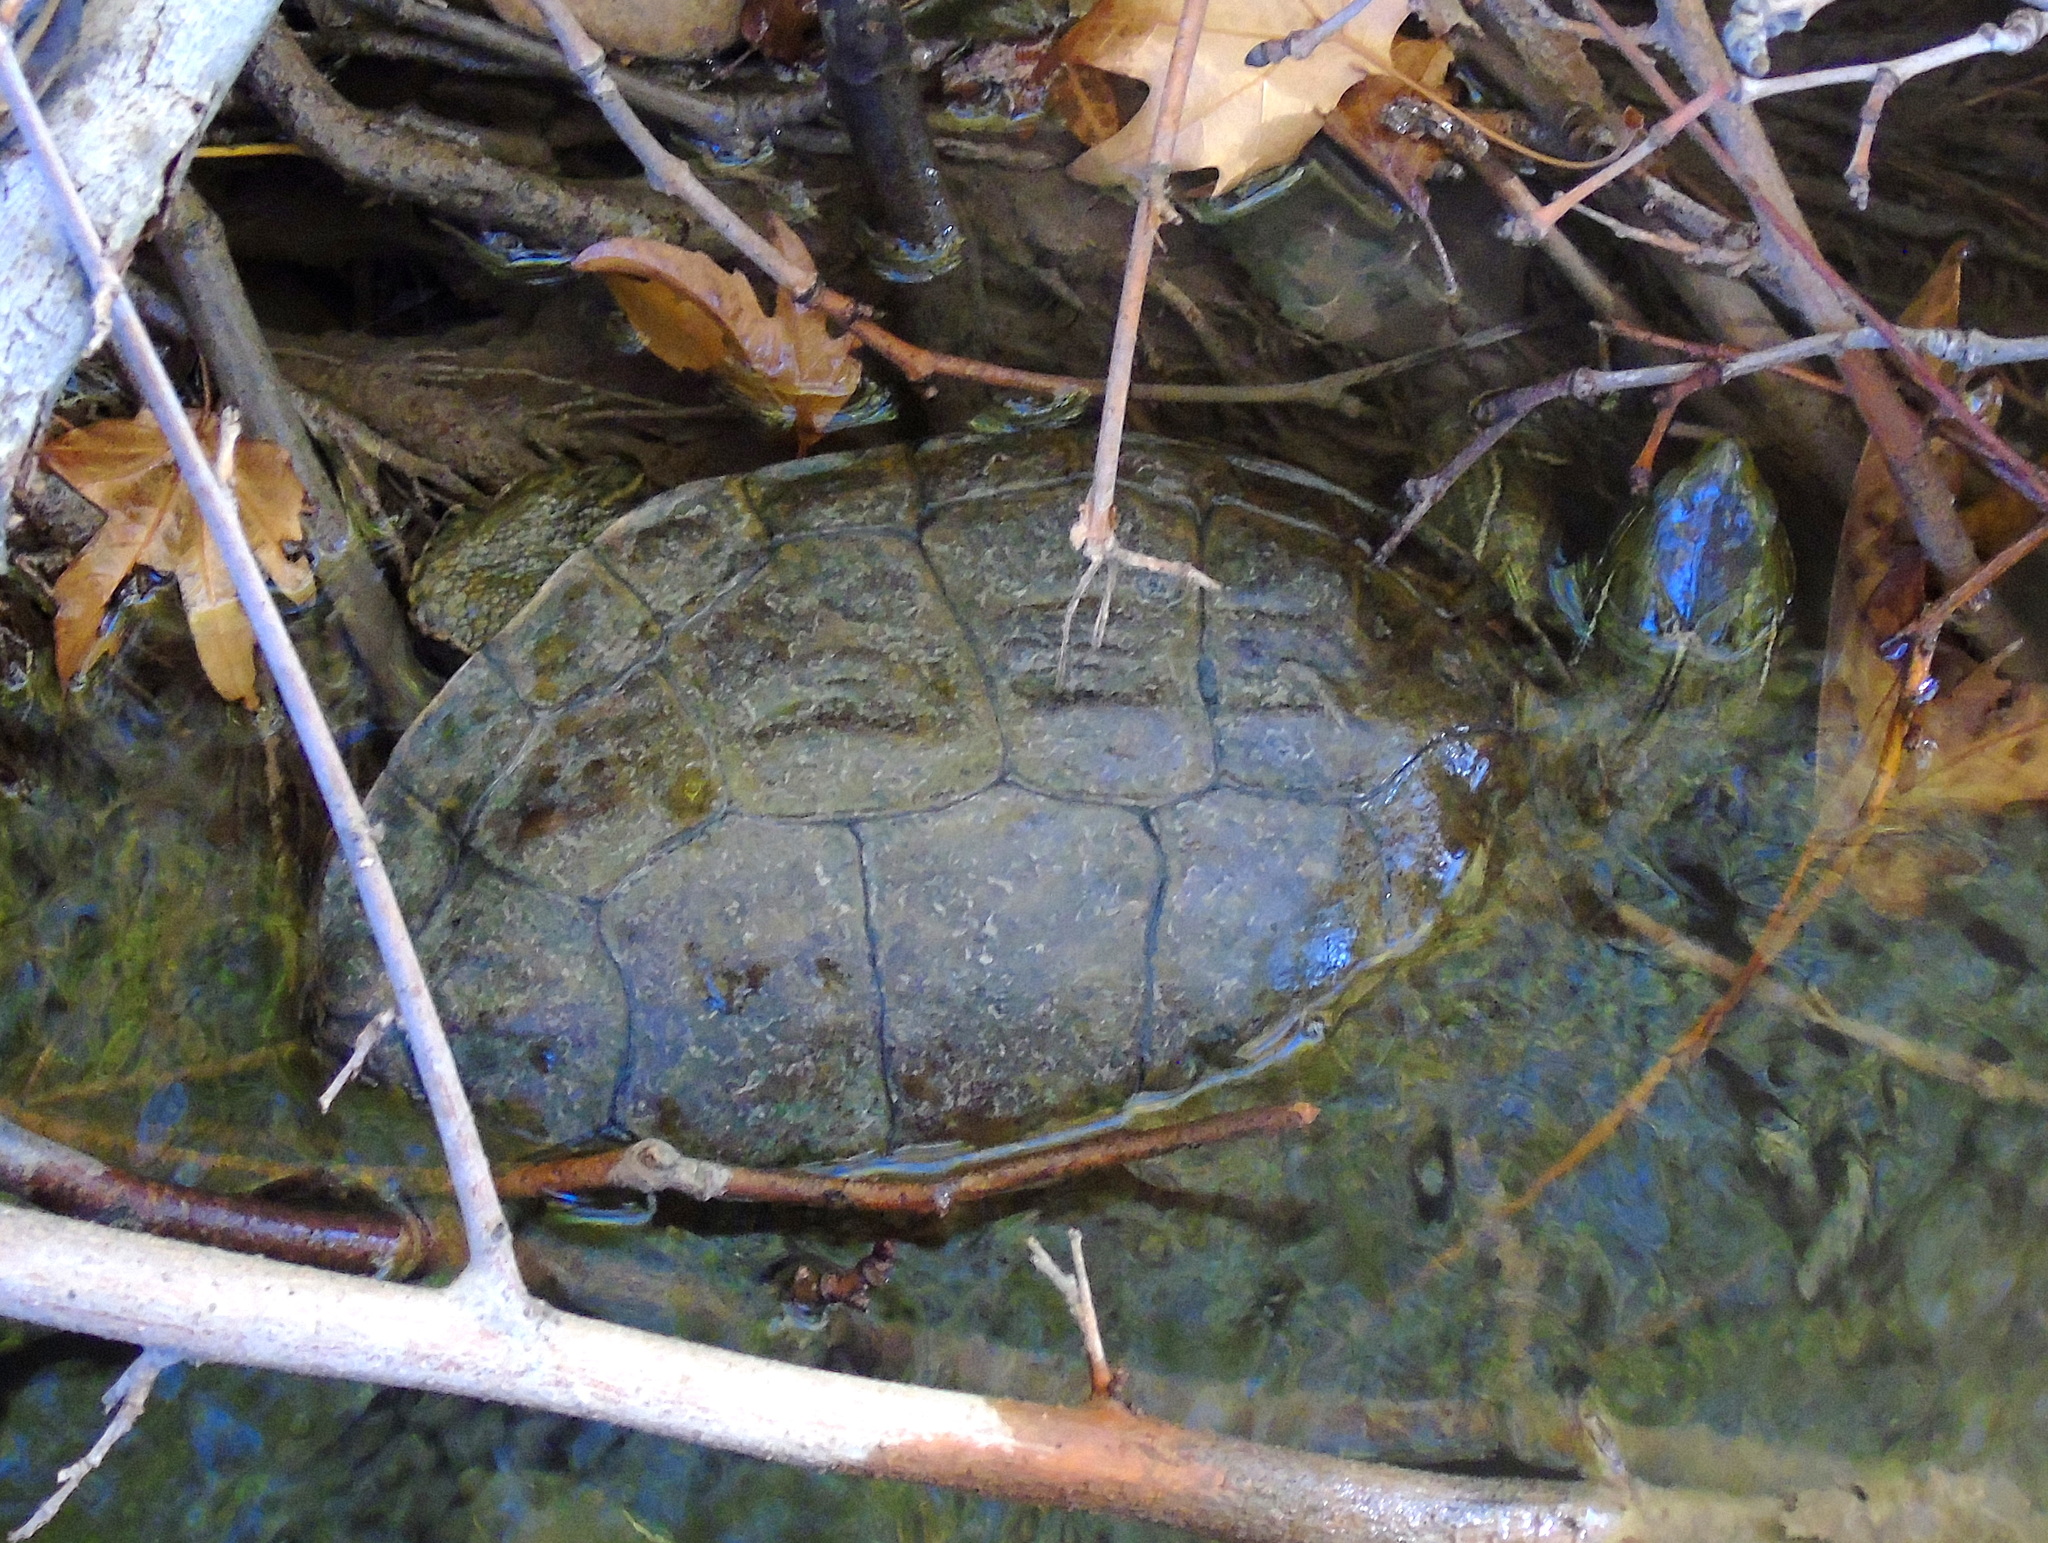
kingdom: Animalia
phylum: Chordata
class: Testudines
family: Geoemydidae
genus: Mauremys
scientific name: Mauremys caspica
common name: Caspian turtle
